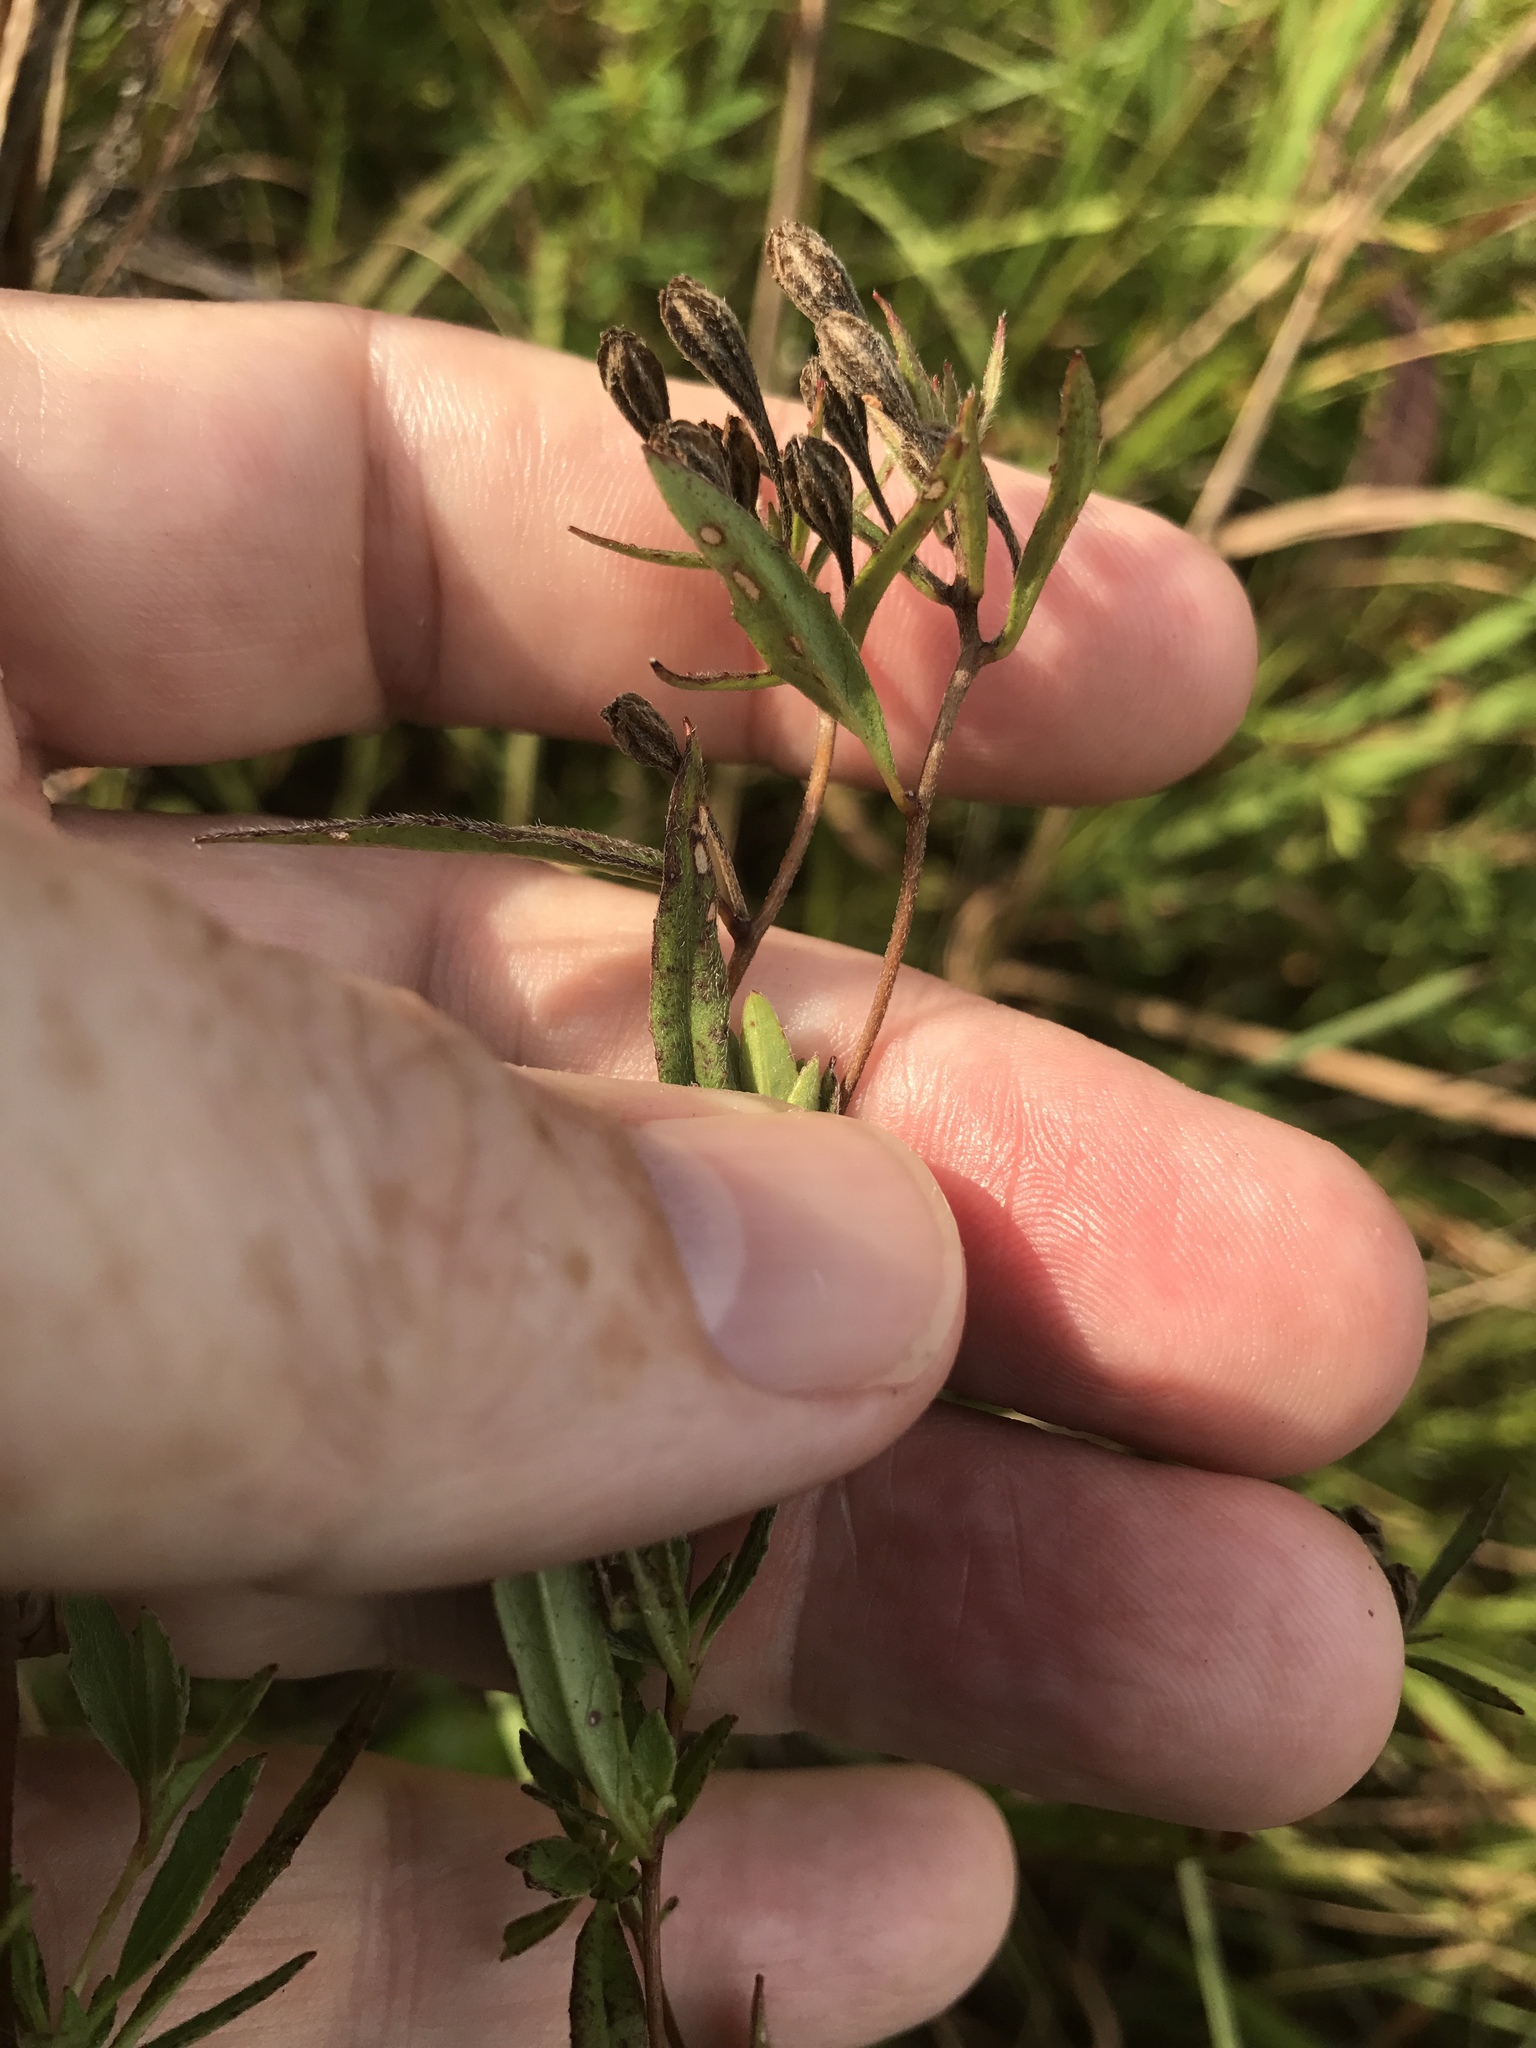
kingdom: Plantae
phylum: Tracheophyta
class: Magnoliopsida
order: Myrtales
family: Onagraceae
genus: Oenothera
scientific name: Oenothera fruticosa
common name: Southern sundrops
